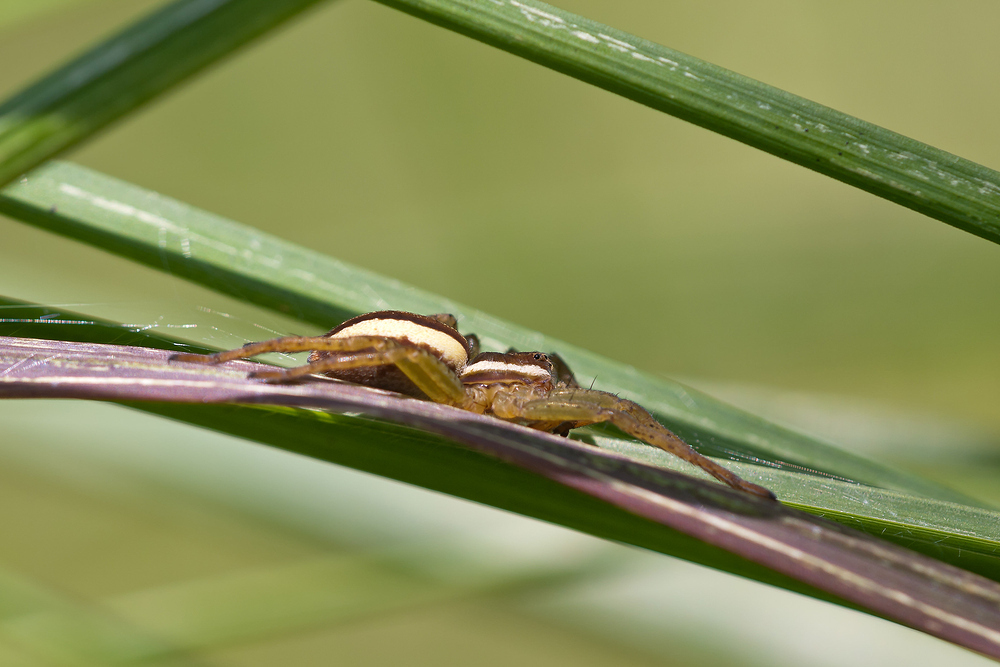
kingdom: Animalia
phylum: Arthropoda
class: Arachnida
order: Araneae
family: Pisauridae
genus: Dolomedes
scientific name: Dolomedes
